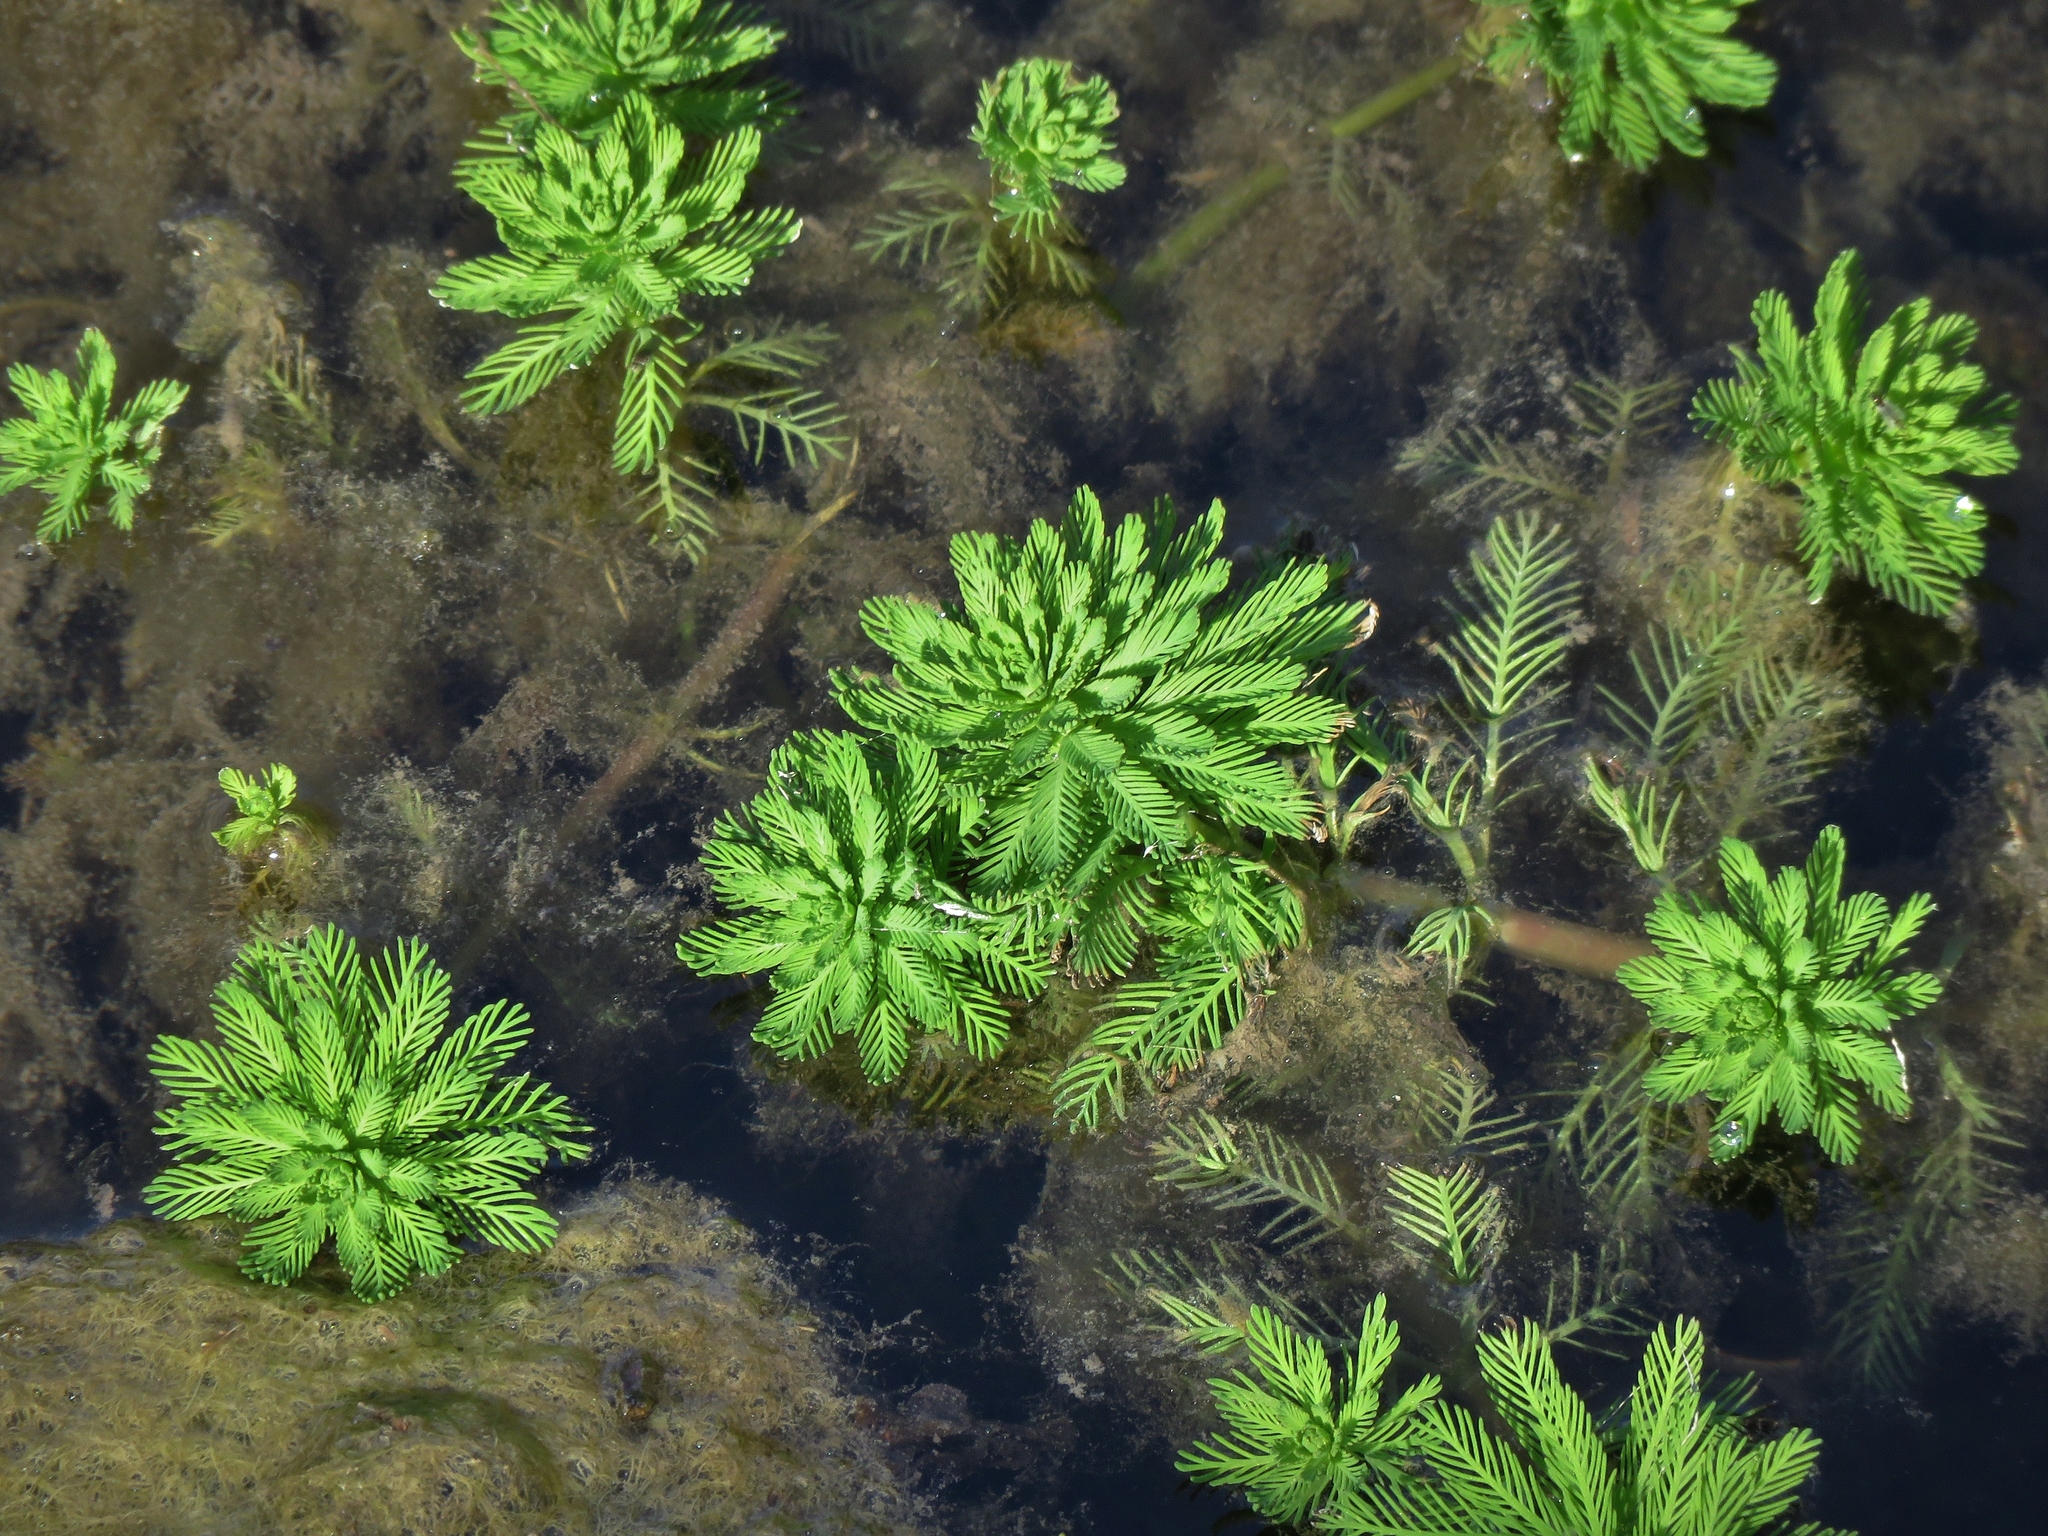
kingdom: Plantae
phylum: Tracheophyta
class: Magnoliopsida
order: Saxifragales
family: Haloragaceae
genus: Myriophyllum
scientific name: Myriophyllum aquaticum
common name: Parrot's feather
